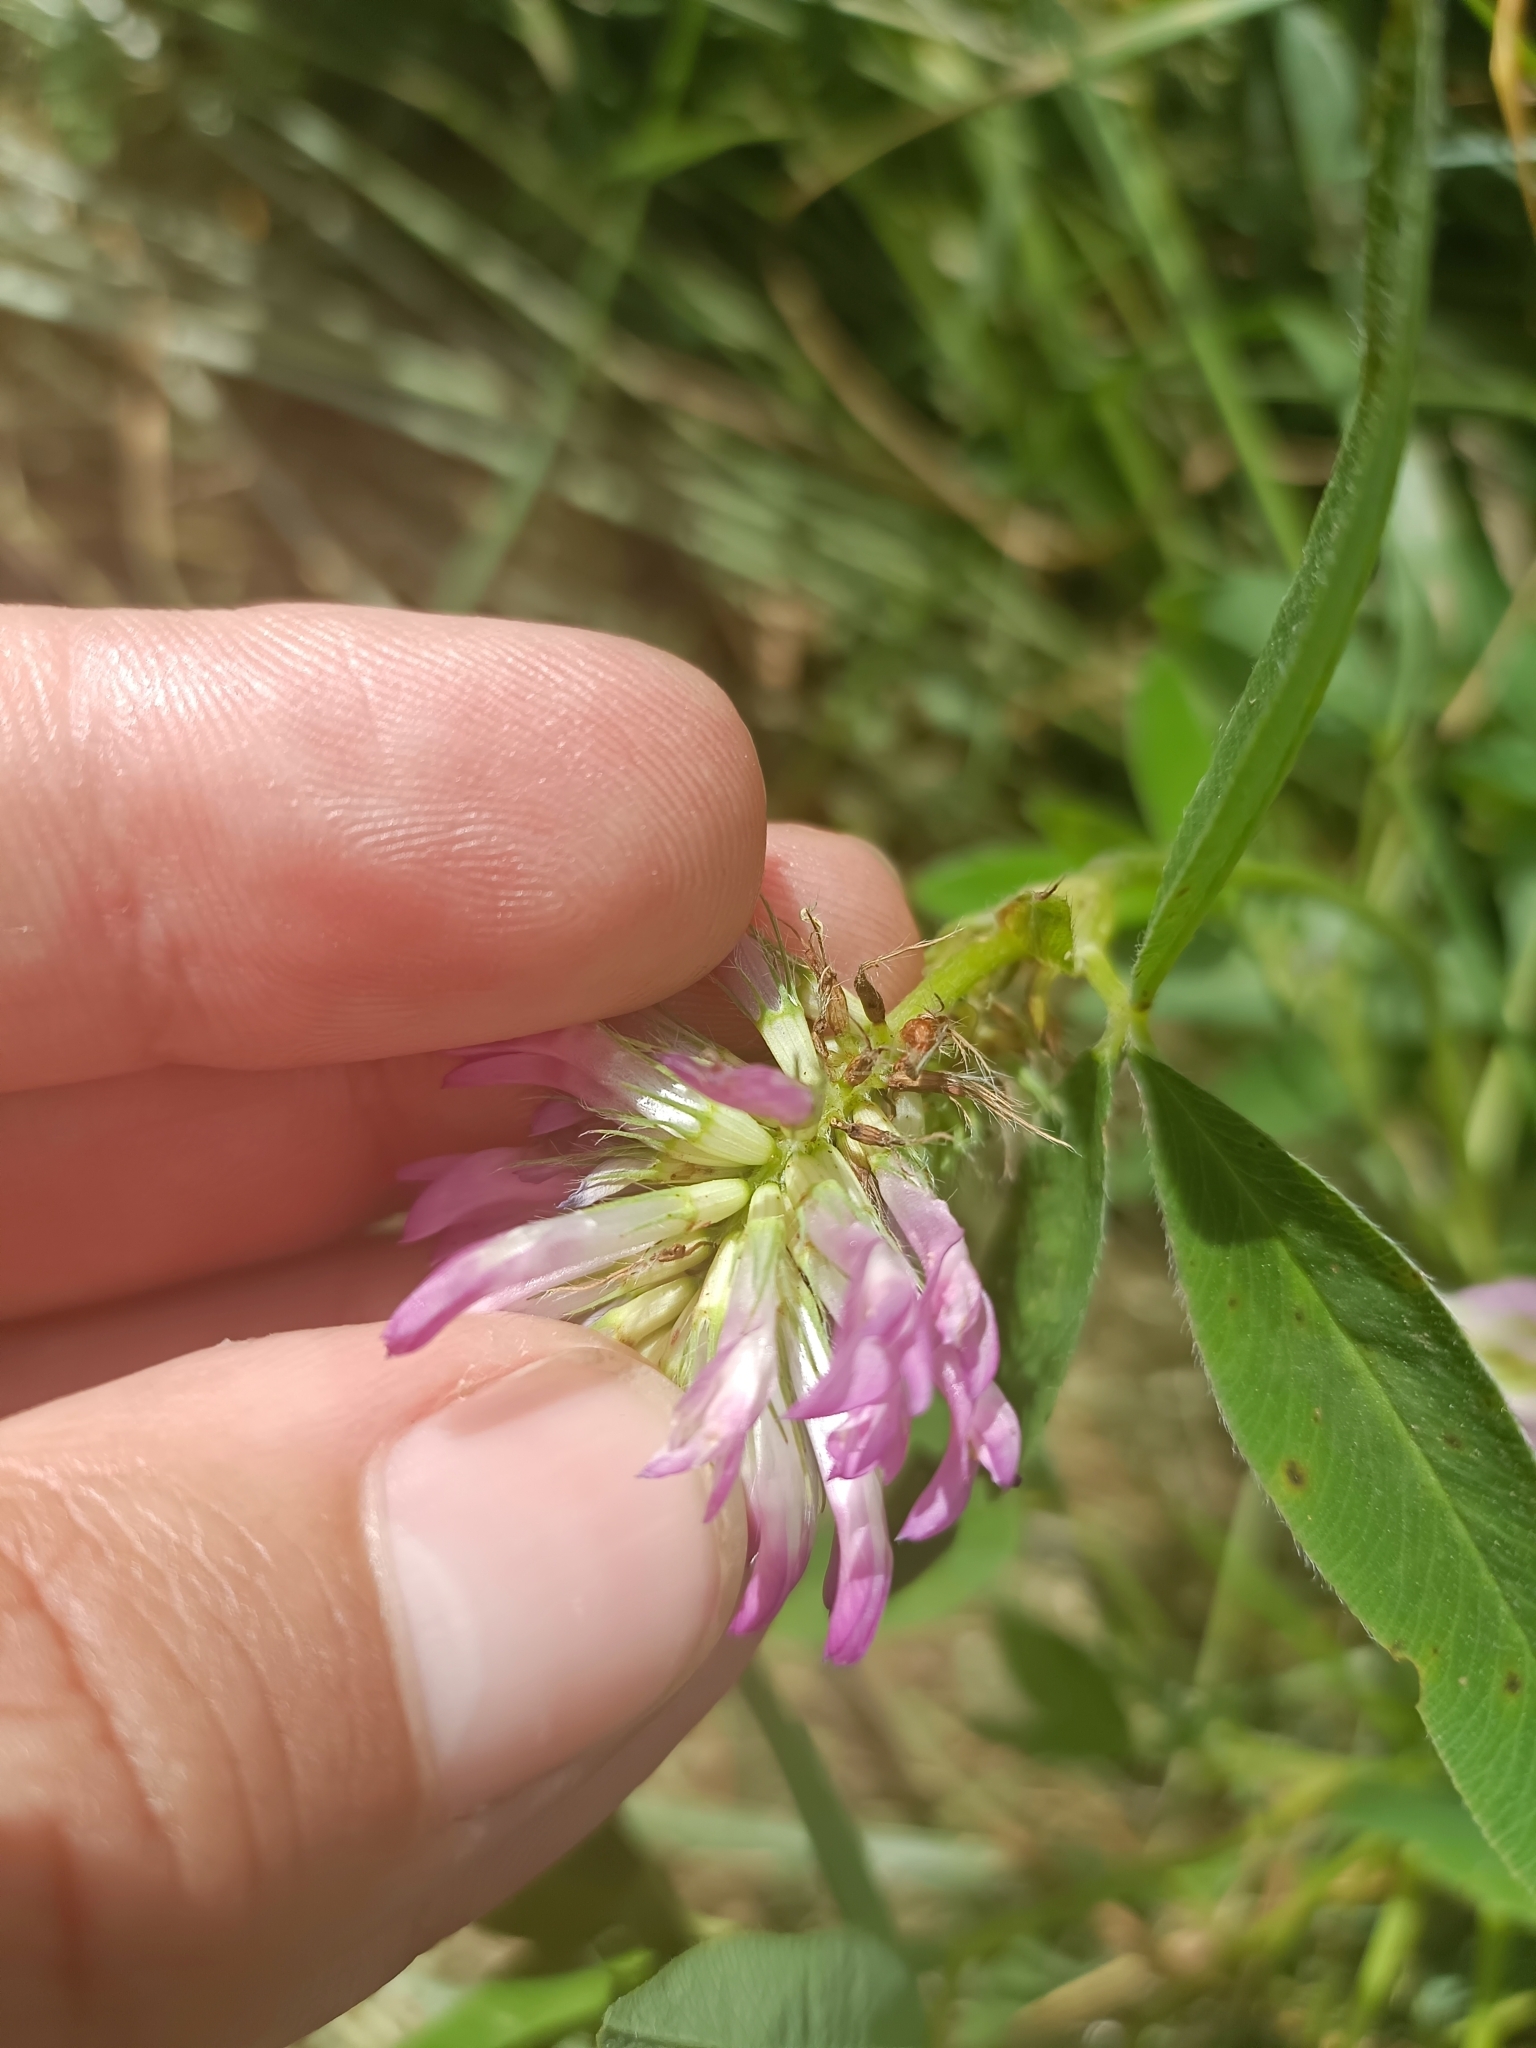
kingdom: Plantae
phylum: Tracheophyta
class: Magnoliopsida
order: Fabales
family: Fabaceae
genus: Trifolium
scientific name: Trifolium medium
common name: Zigzag clover
